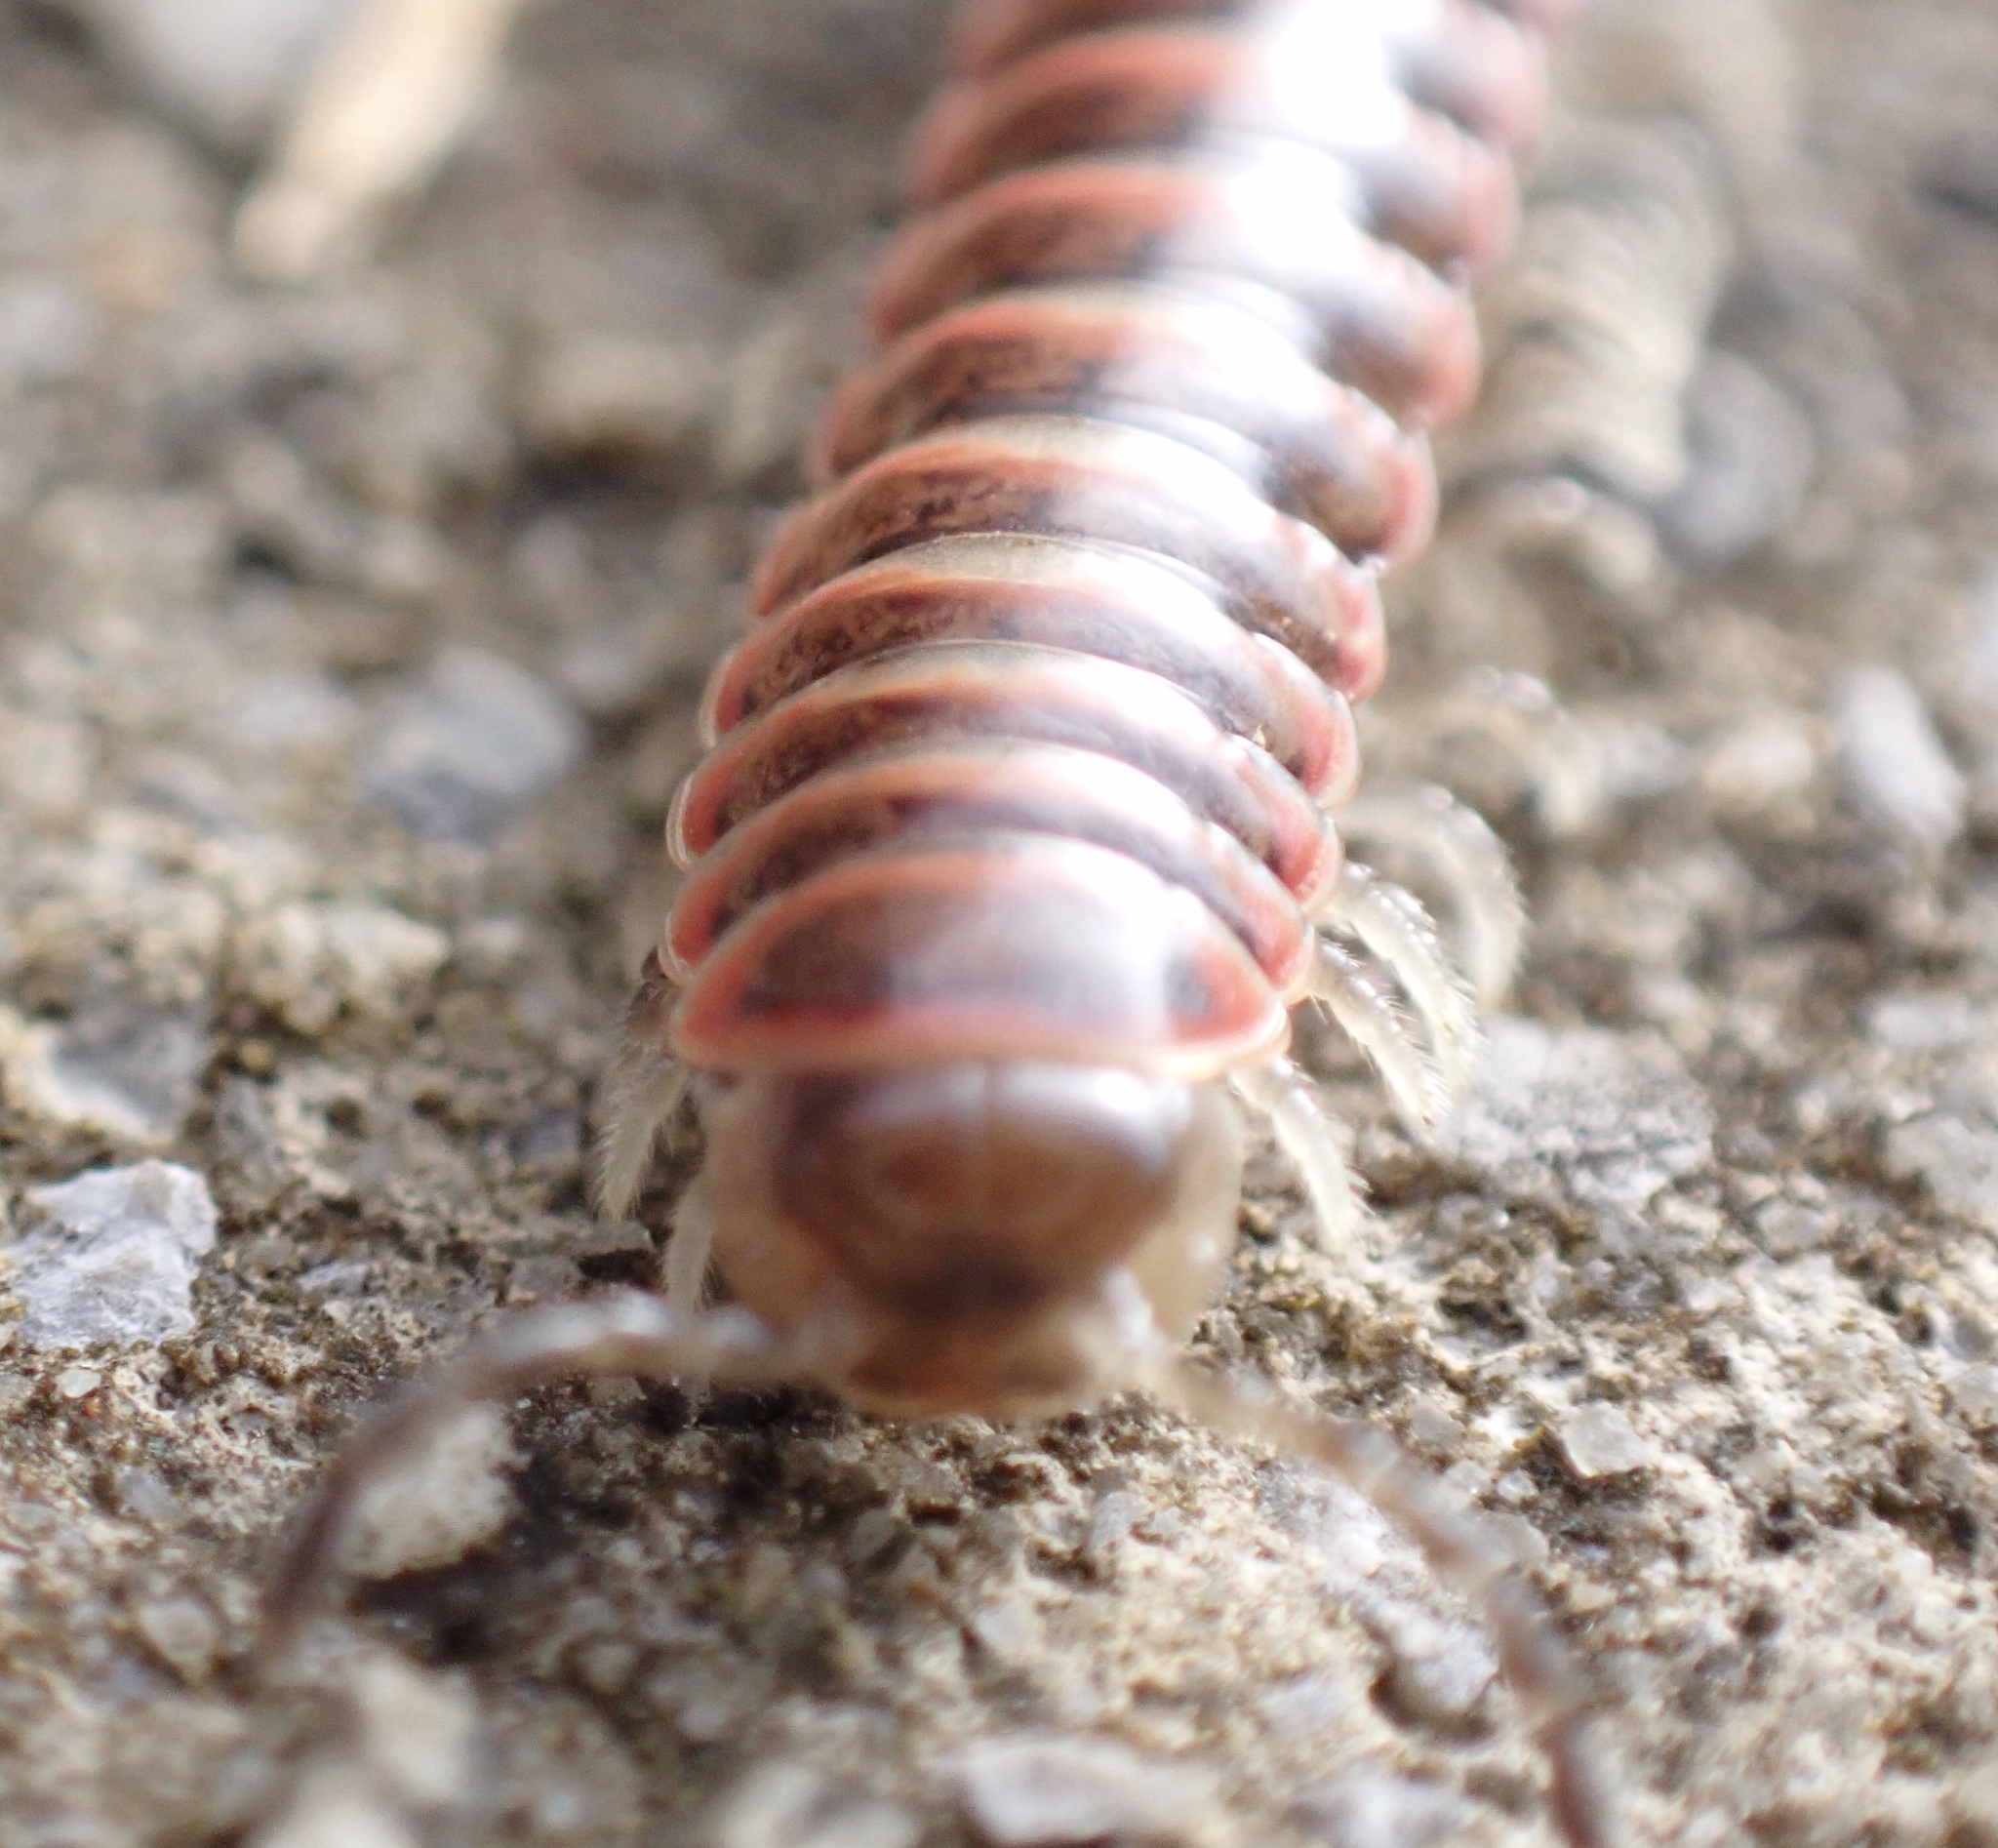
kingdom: Animalia
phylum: Arthropoda
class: Diplopoda
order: Polydesmida
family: Xystodesmidae
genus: Oenomaea
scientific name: Oenomaea pulchella
